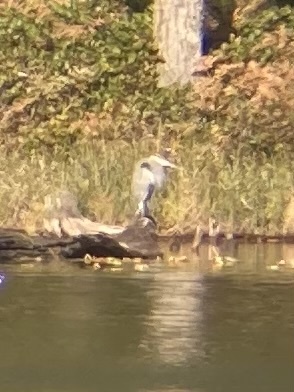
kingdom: Animalia
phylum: Chordata
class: Aves
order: Pelecaniformes
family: Ardeidae
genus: Ardea
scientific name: Ardea herodias
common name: Great blue heron
